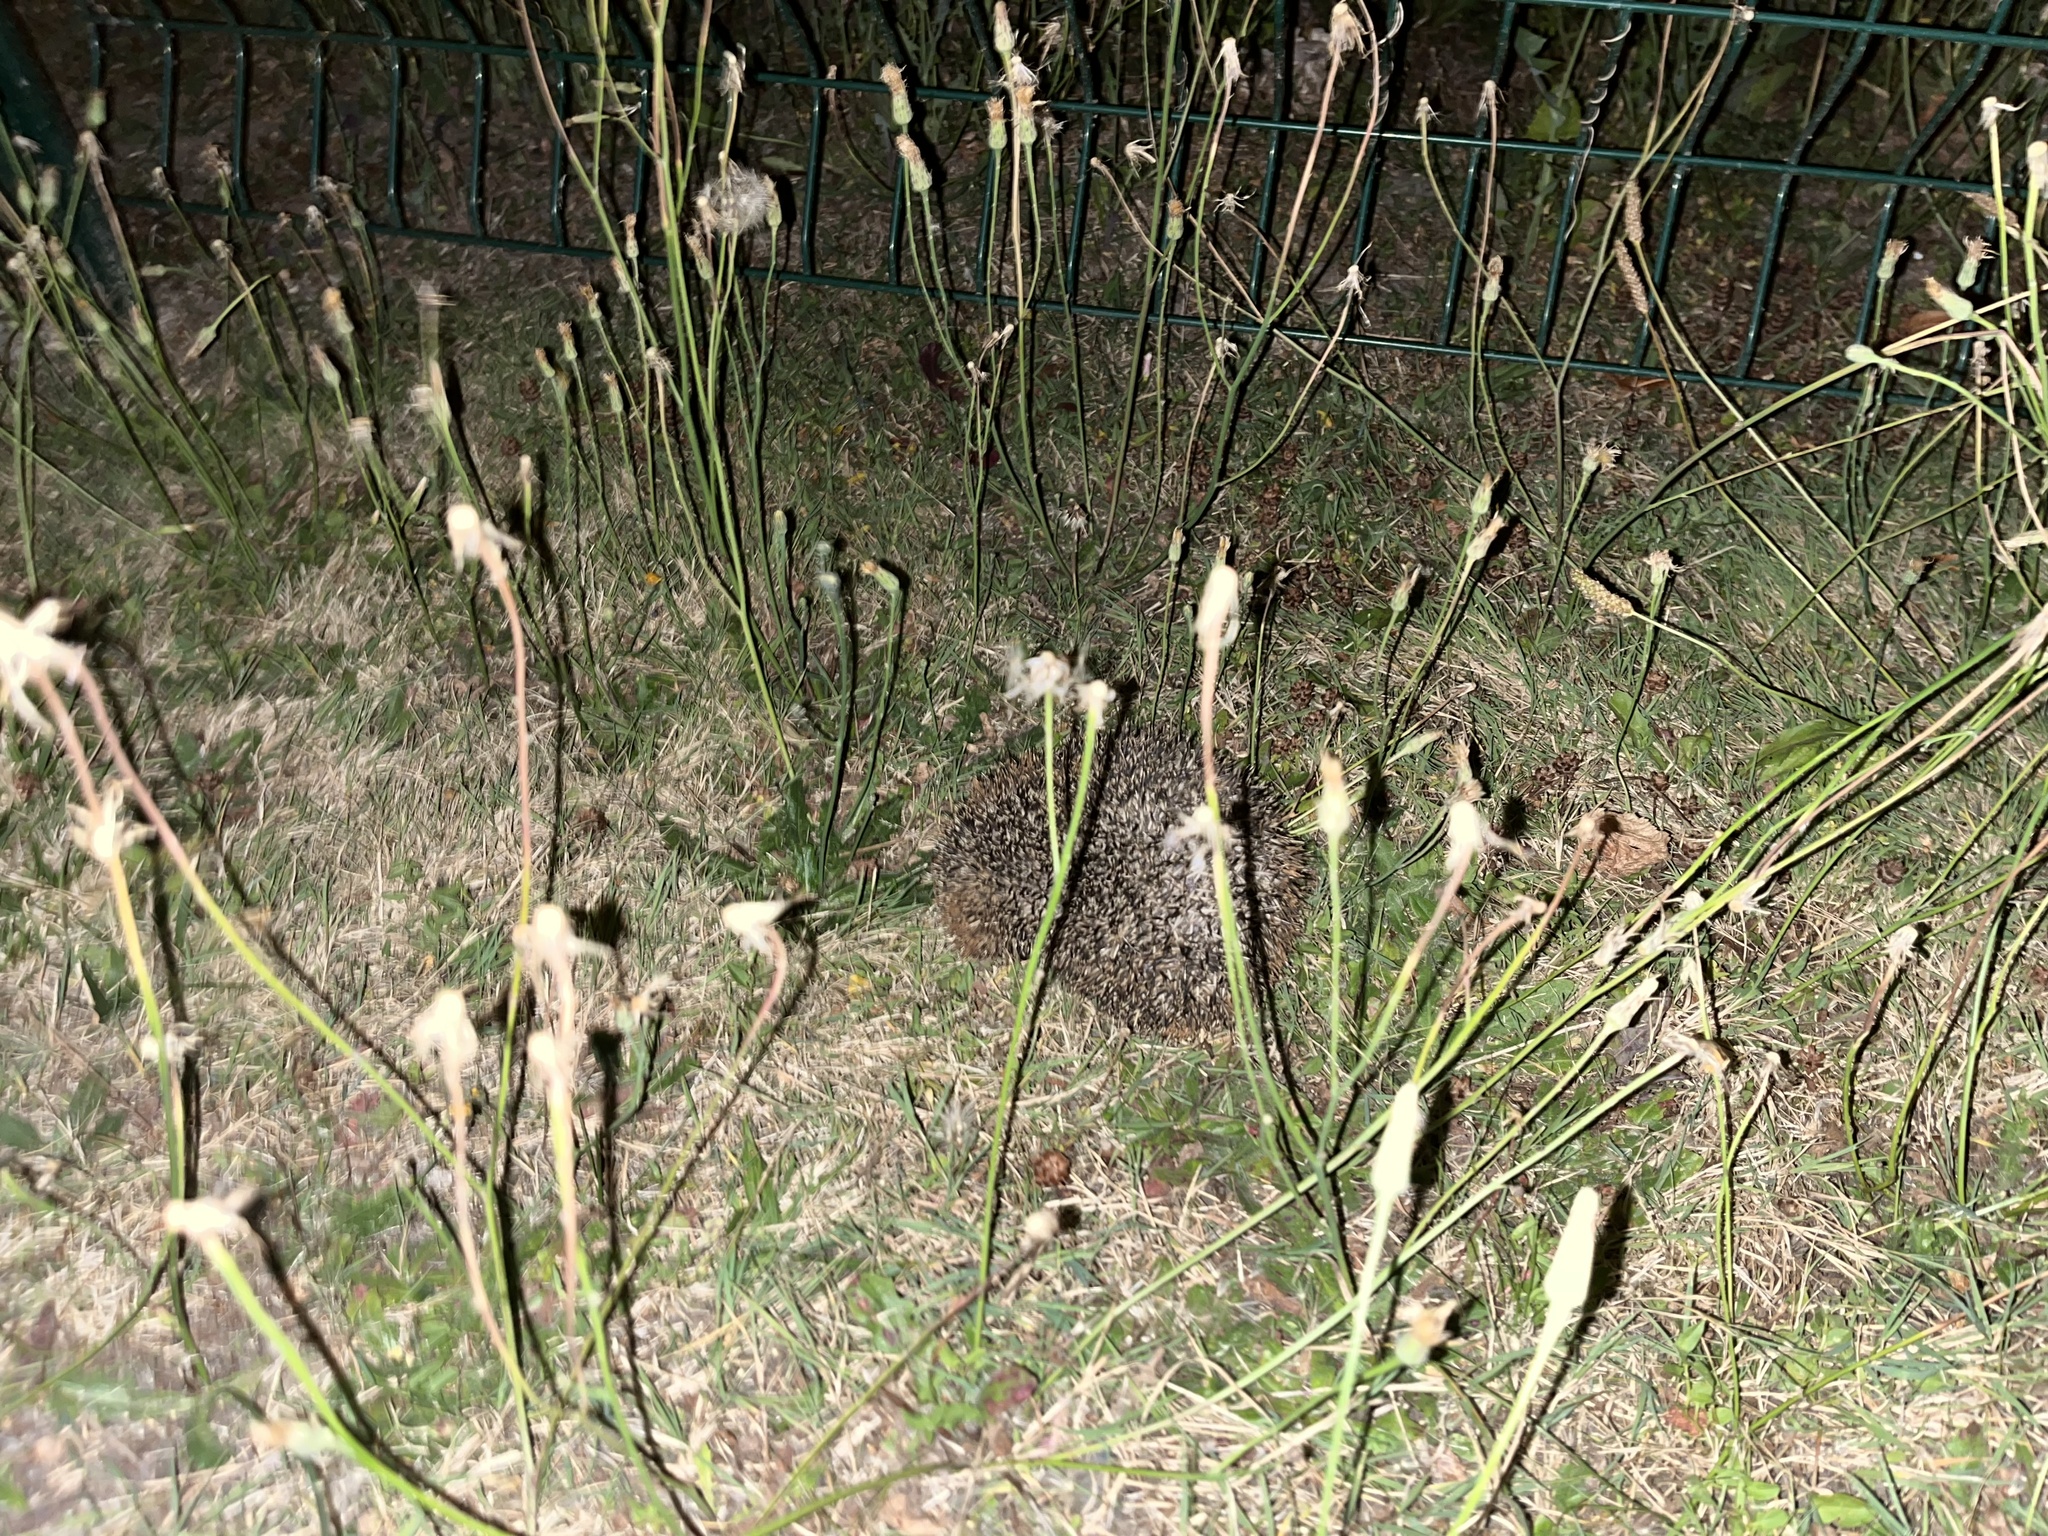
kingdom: Animalia
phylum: Chordata
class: Mammalia
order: Erinaceomorpha
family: Erinaceidae
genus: Erinaceus
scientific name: Erinaceus europaeus
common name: West european hedgehog
